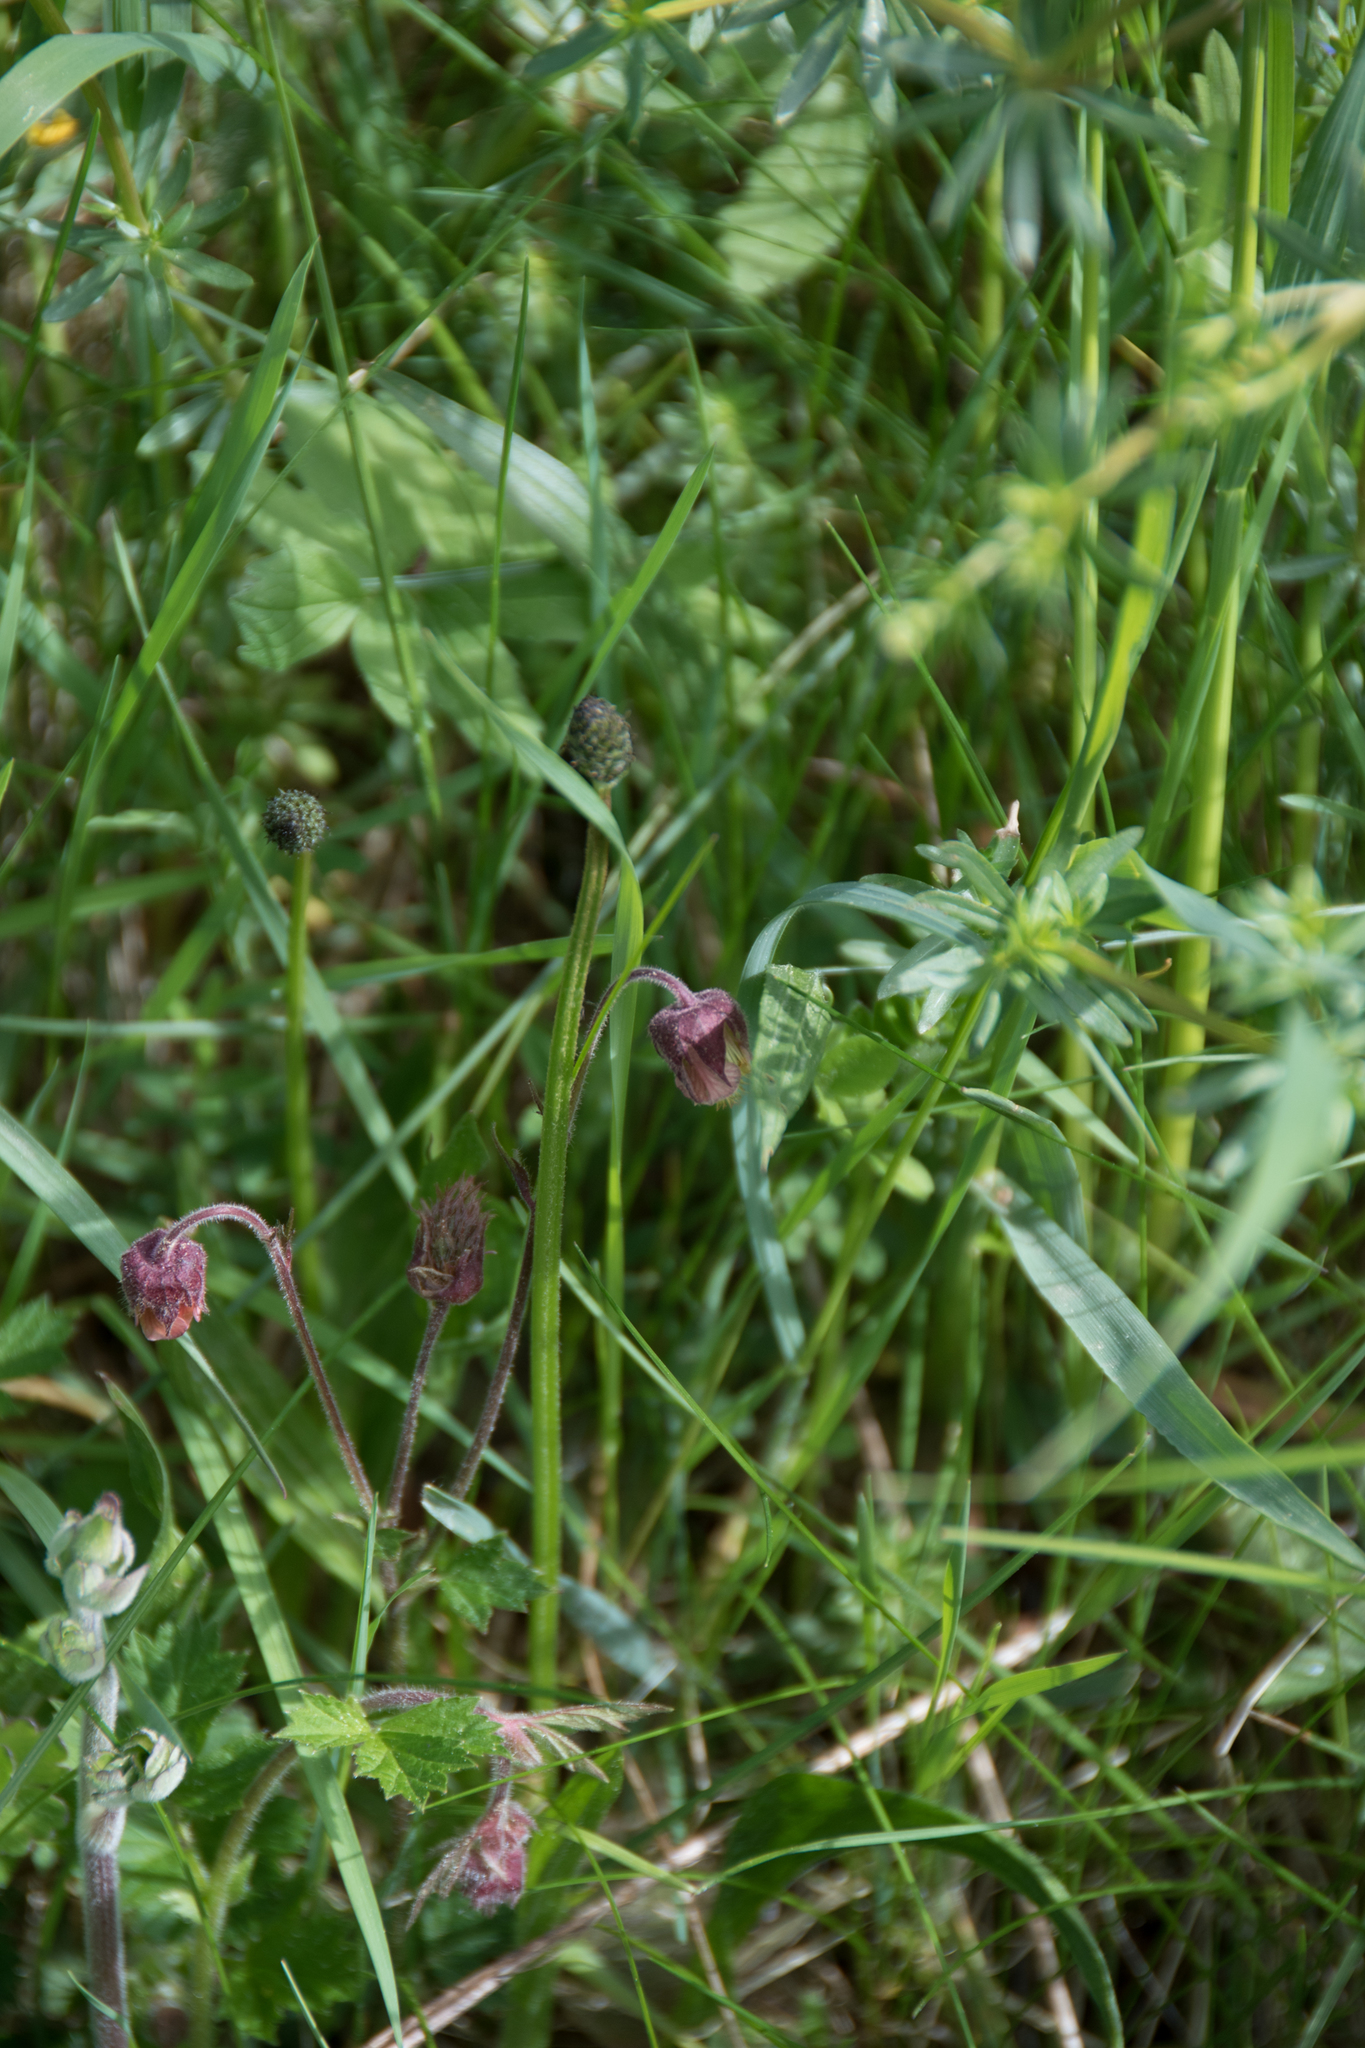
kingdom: Plantae
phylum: Tracheophyta
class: Magnoliopsida
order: Rosales
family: Rosaceae
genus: Geum
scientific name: Geum rivale
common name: Water avens
